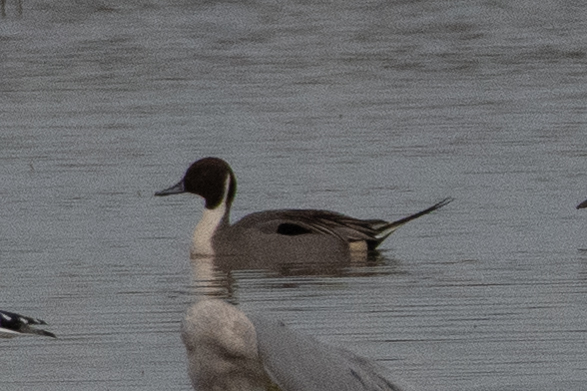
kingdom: Animalia
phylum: Chordata
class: Aves
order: Anseriformes
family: Anatidae
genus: Anas
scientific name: Anas acuta
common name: Northern pintail
